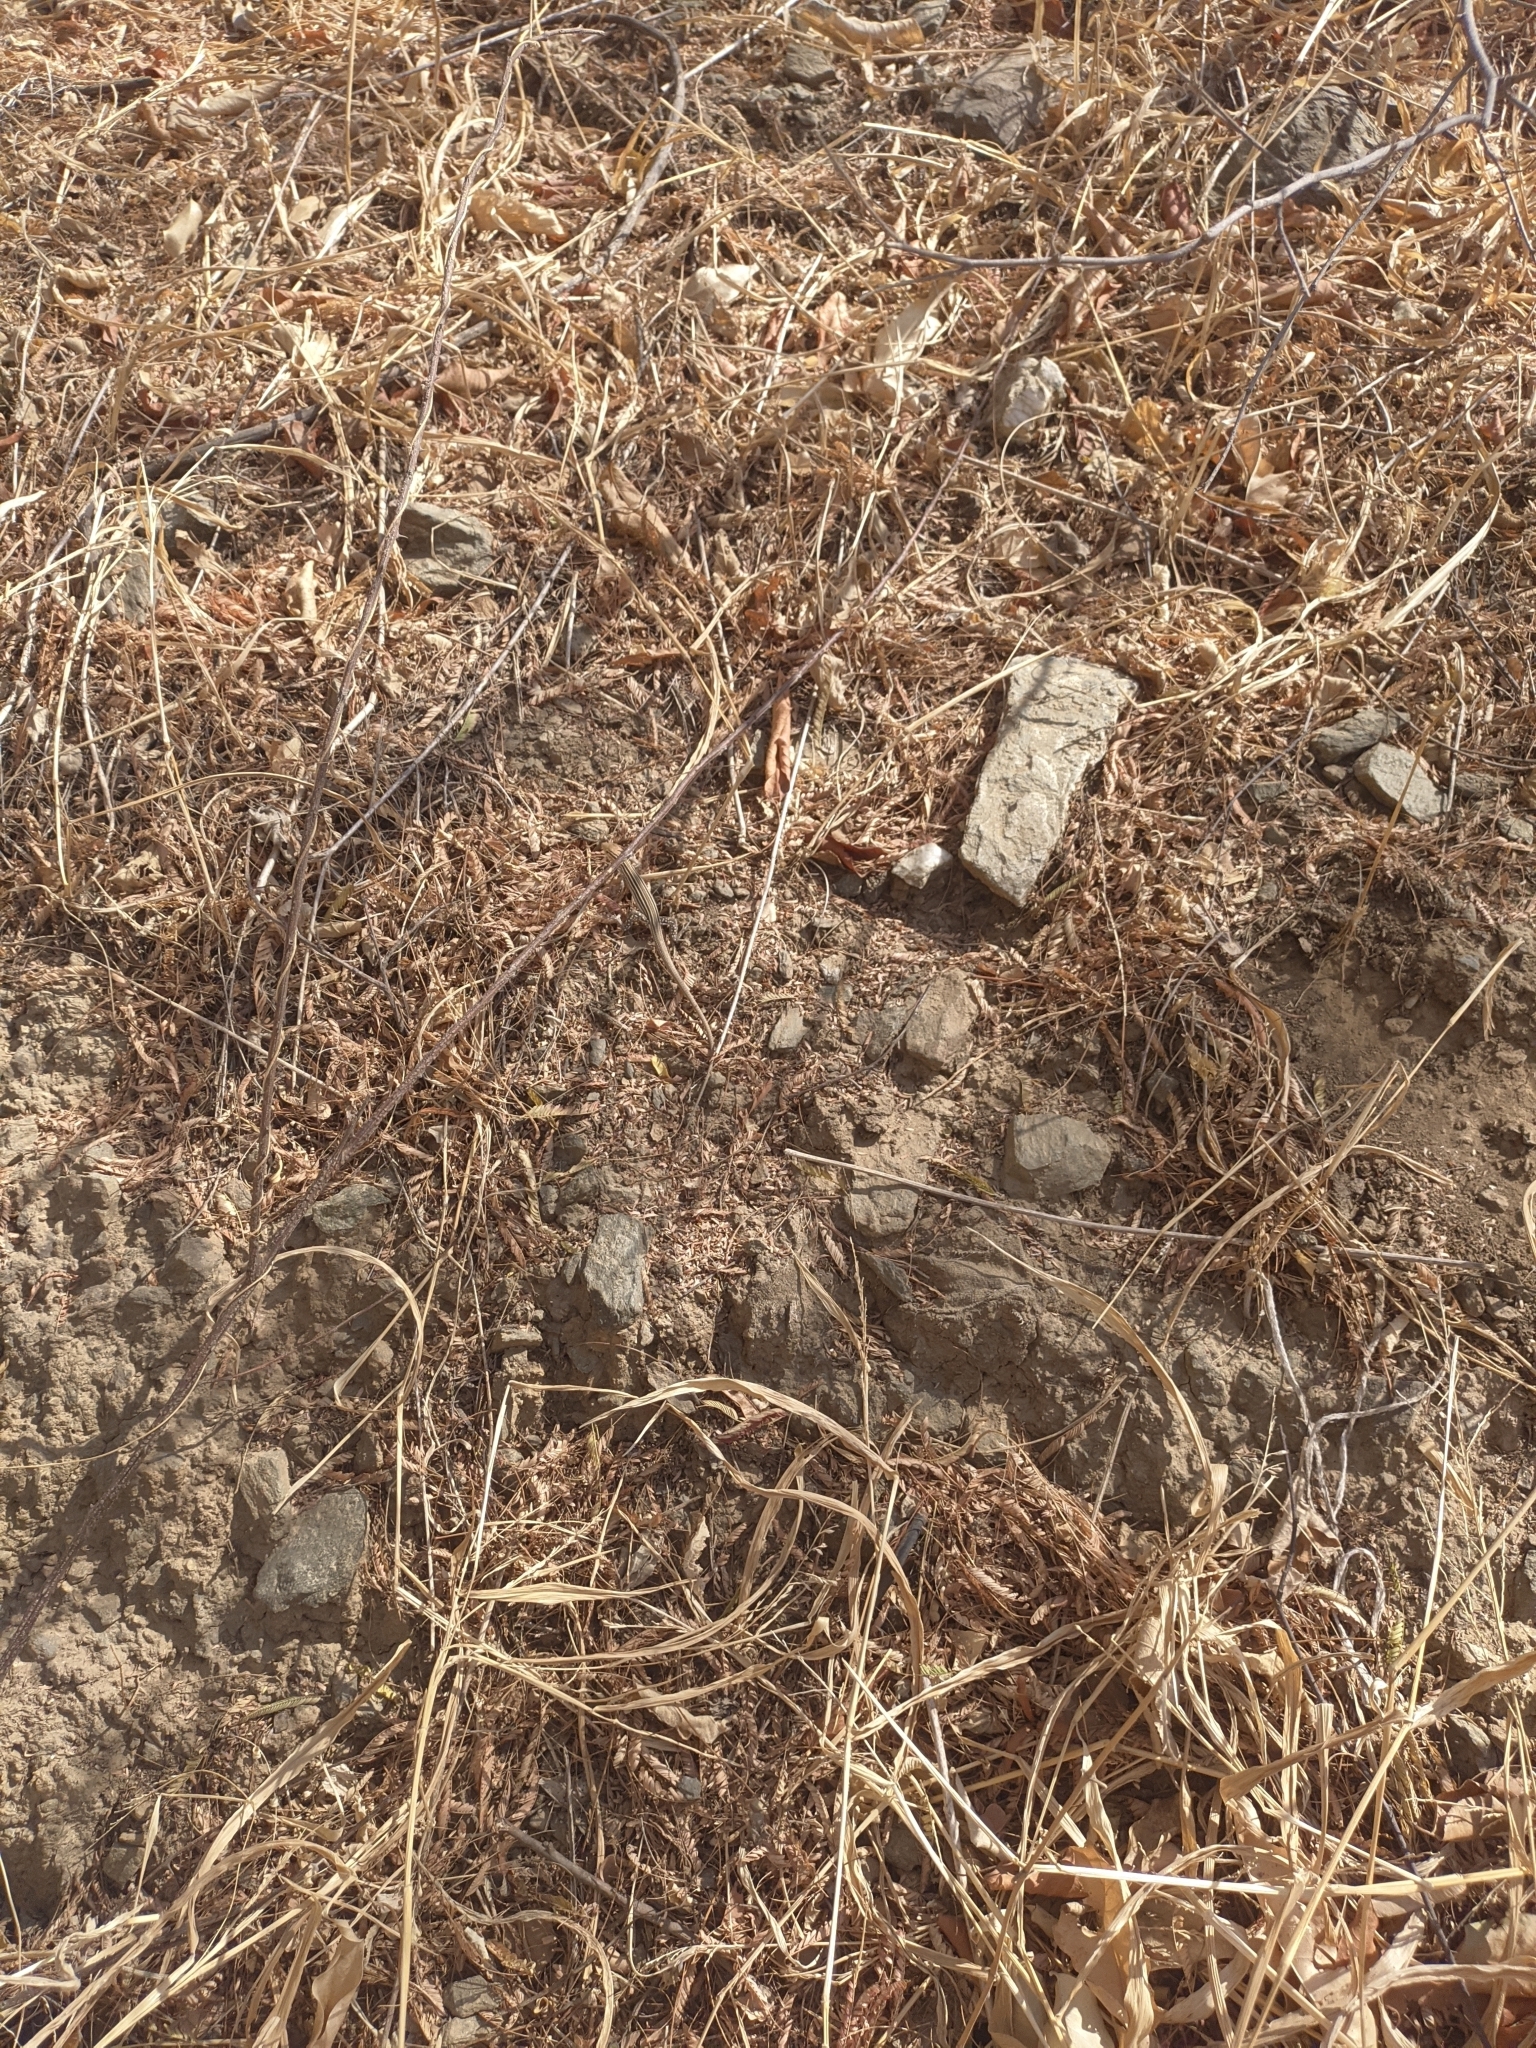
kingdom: Animalia
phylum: Chordata
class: Squamata
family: Teiidae
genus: Cnemidophorus
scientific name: Cnemidophorus gaigei
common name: Gaige’s rainbow lizard
